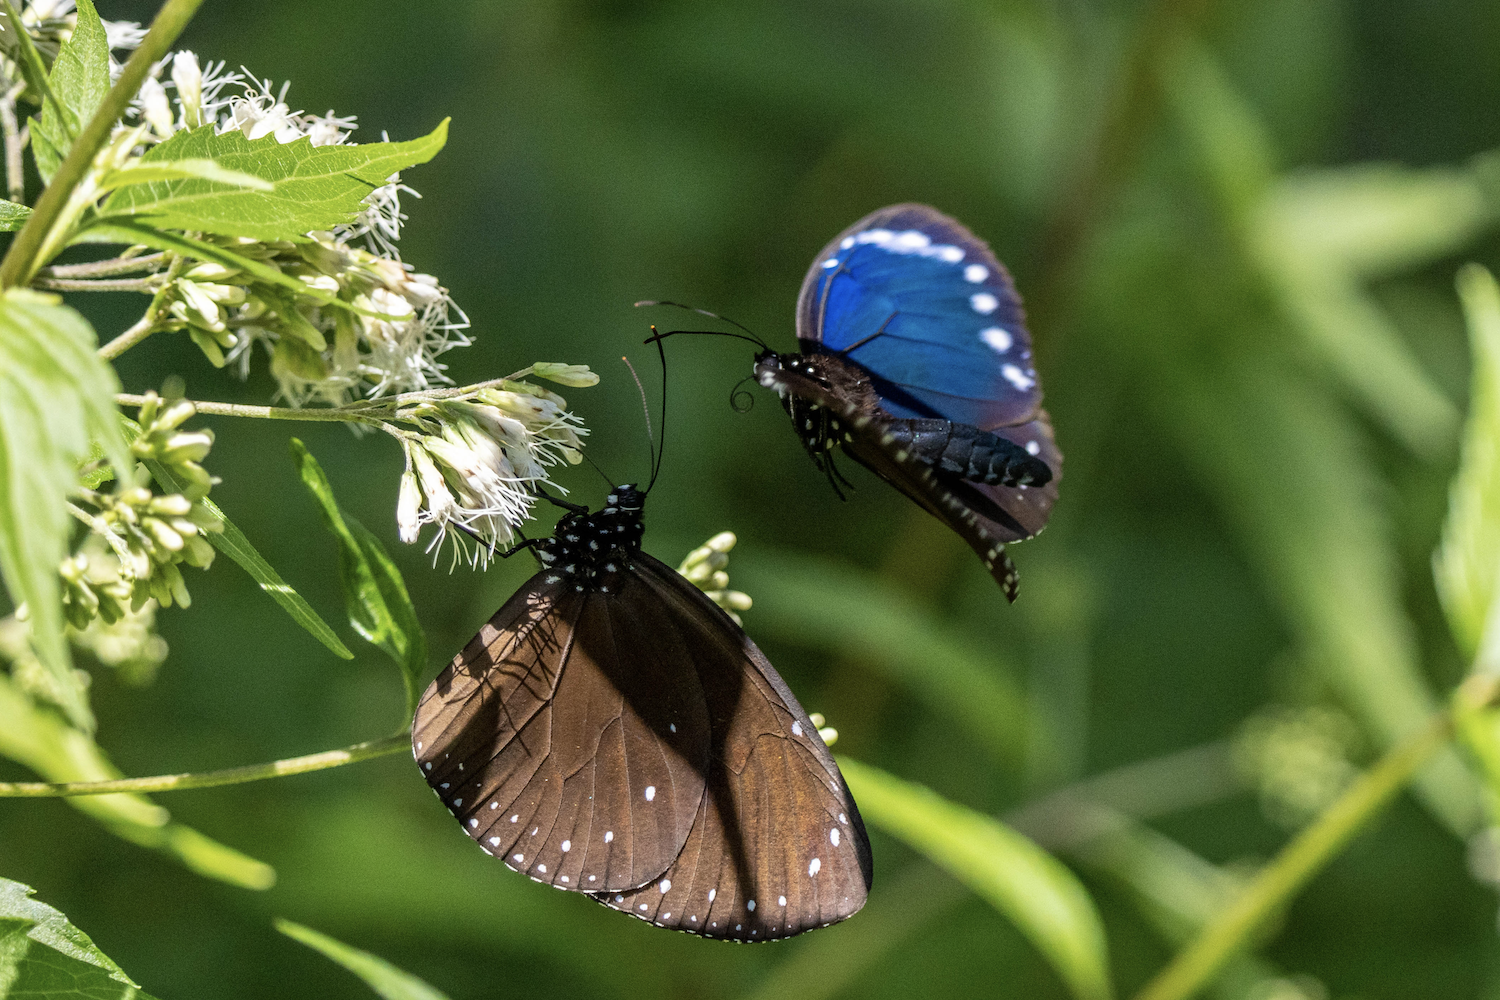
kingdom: Animalia
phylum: Arthropoda
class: Insecta
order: Lepidoptera
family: Nymphalidae
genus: Euploea
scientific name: Euploea tulliolus
